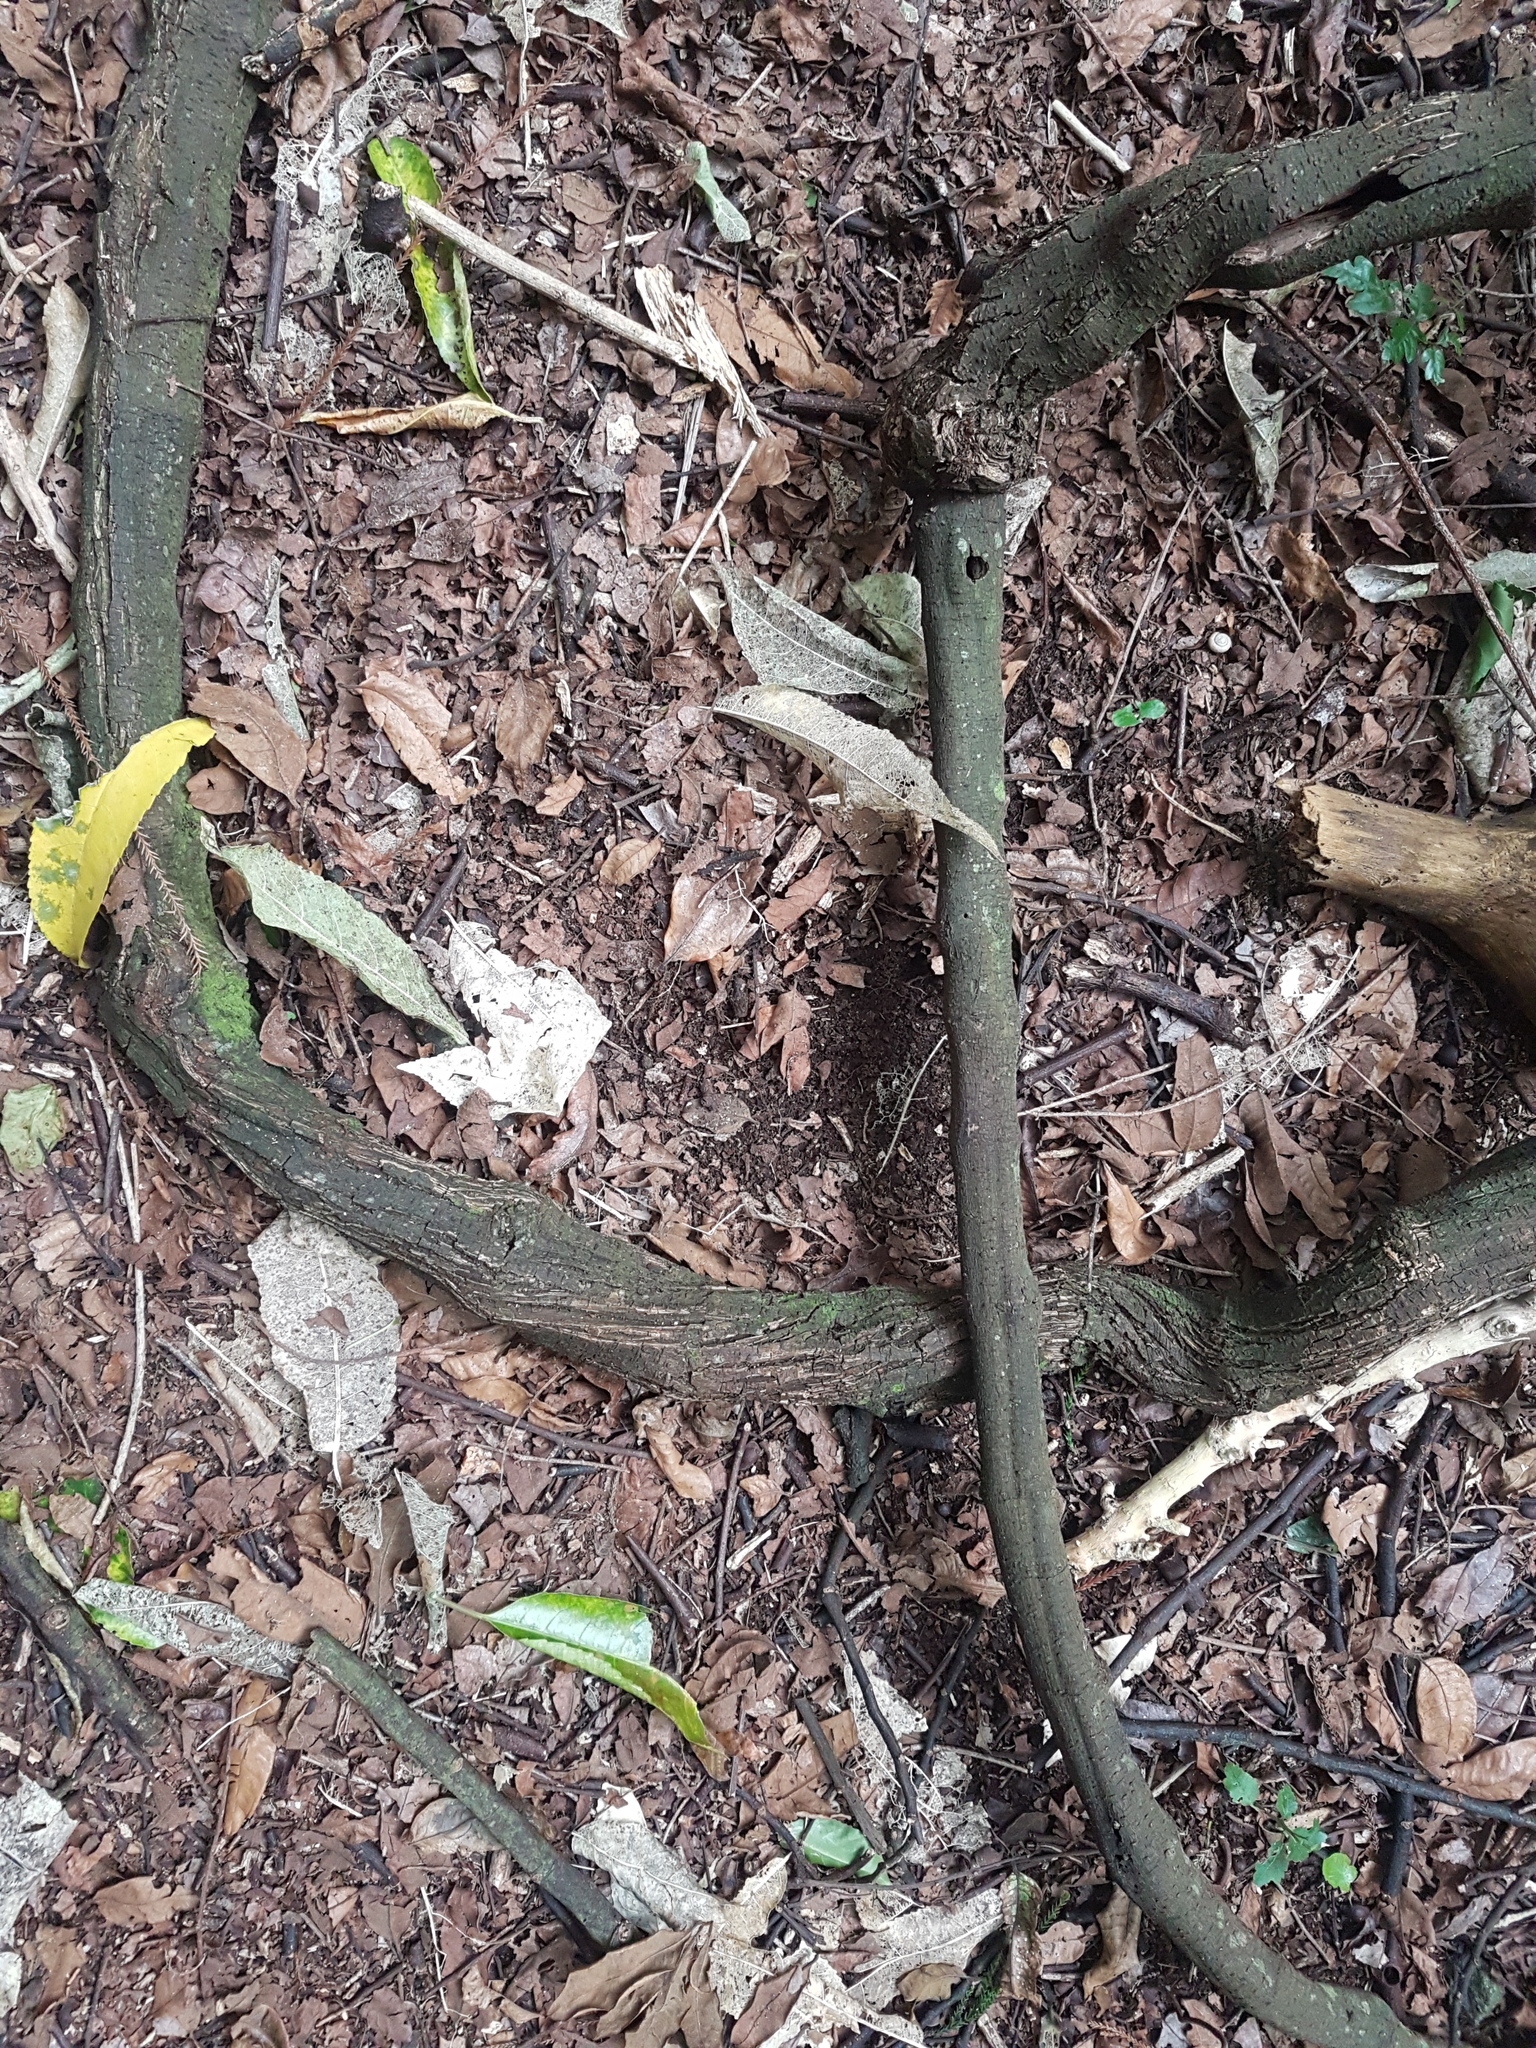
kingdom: Plantae
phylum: Tracheophyta
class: Magnoliopsida
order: Malpighiales
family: Passifloraceae
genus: Passiflora
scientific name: Passiflora tetrandra
